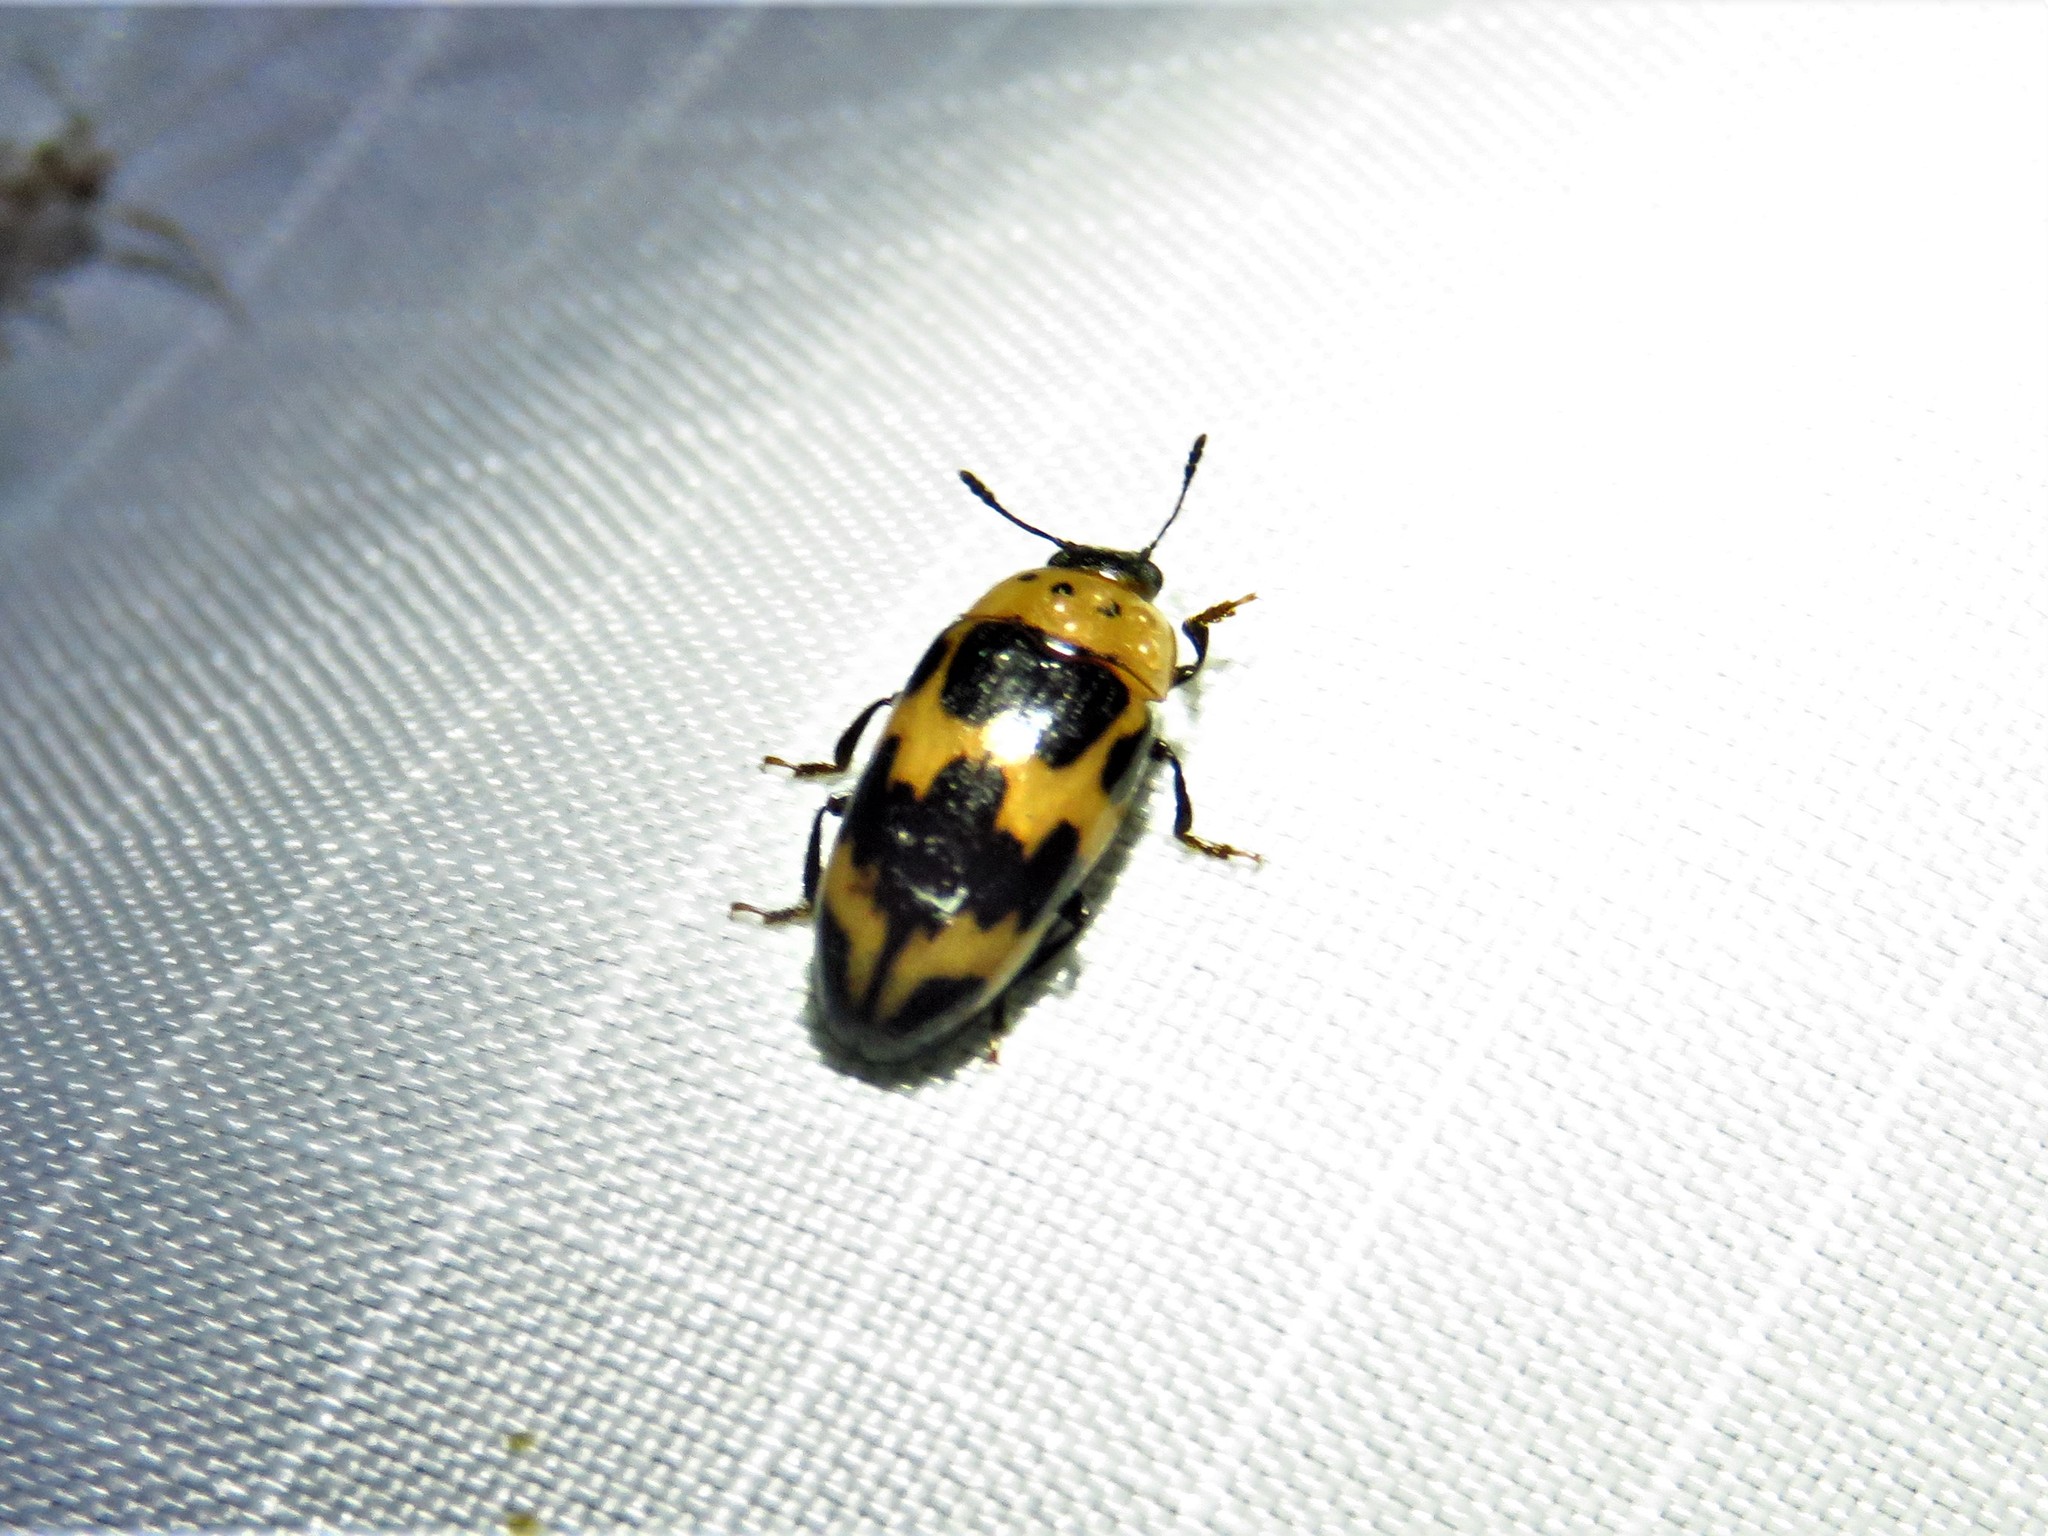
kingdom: Animalia
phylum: Arthropoda
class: Insecta
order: Coleoptera
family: Erotylidae
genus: Ischyrus
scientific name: Ischyrus quadripunctatus
